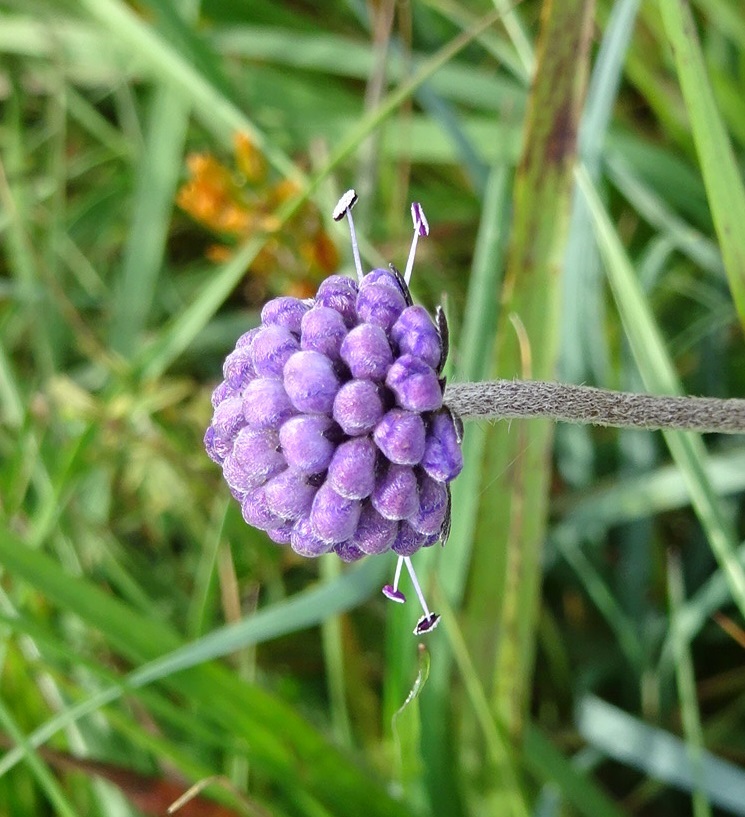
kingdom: Plantae
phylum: Tracheophyta
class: Magnoliopsida
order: Dipsacales
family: Caprifoliaceae
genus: Succisa
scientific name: Succisa pratensis
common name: Devil's-bit
